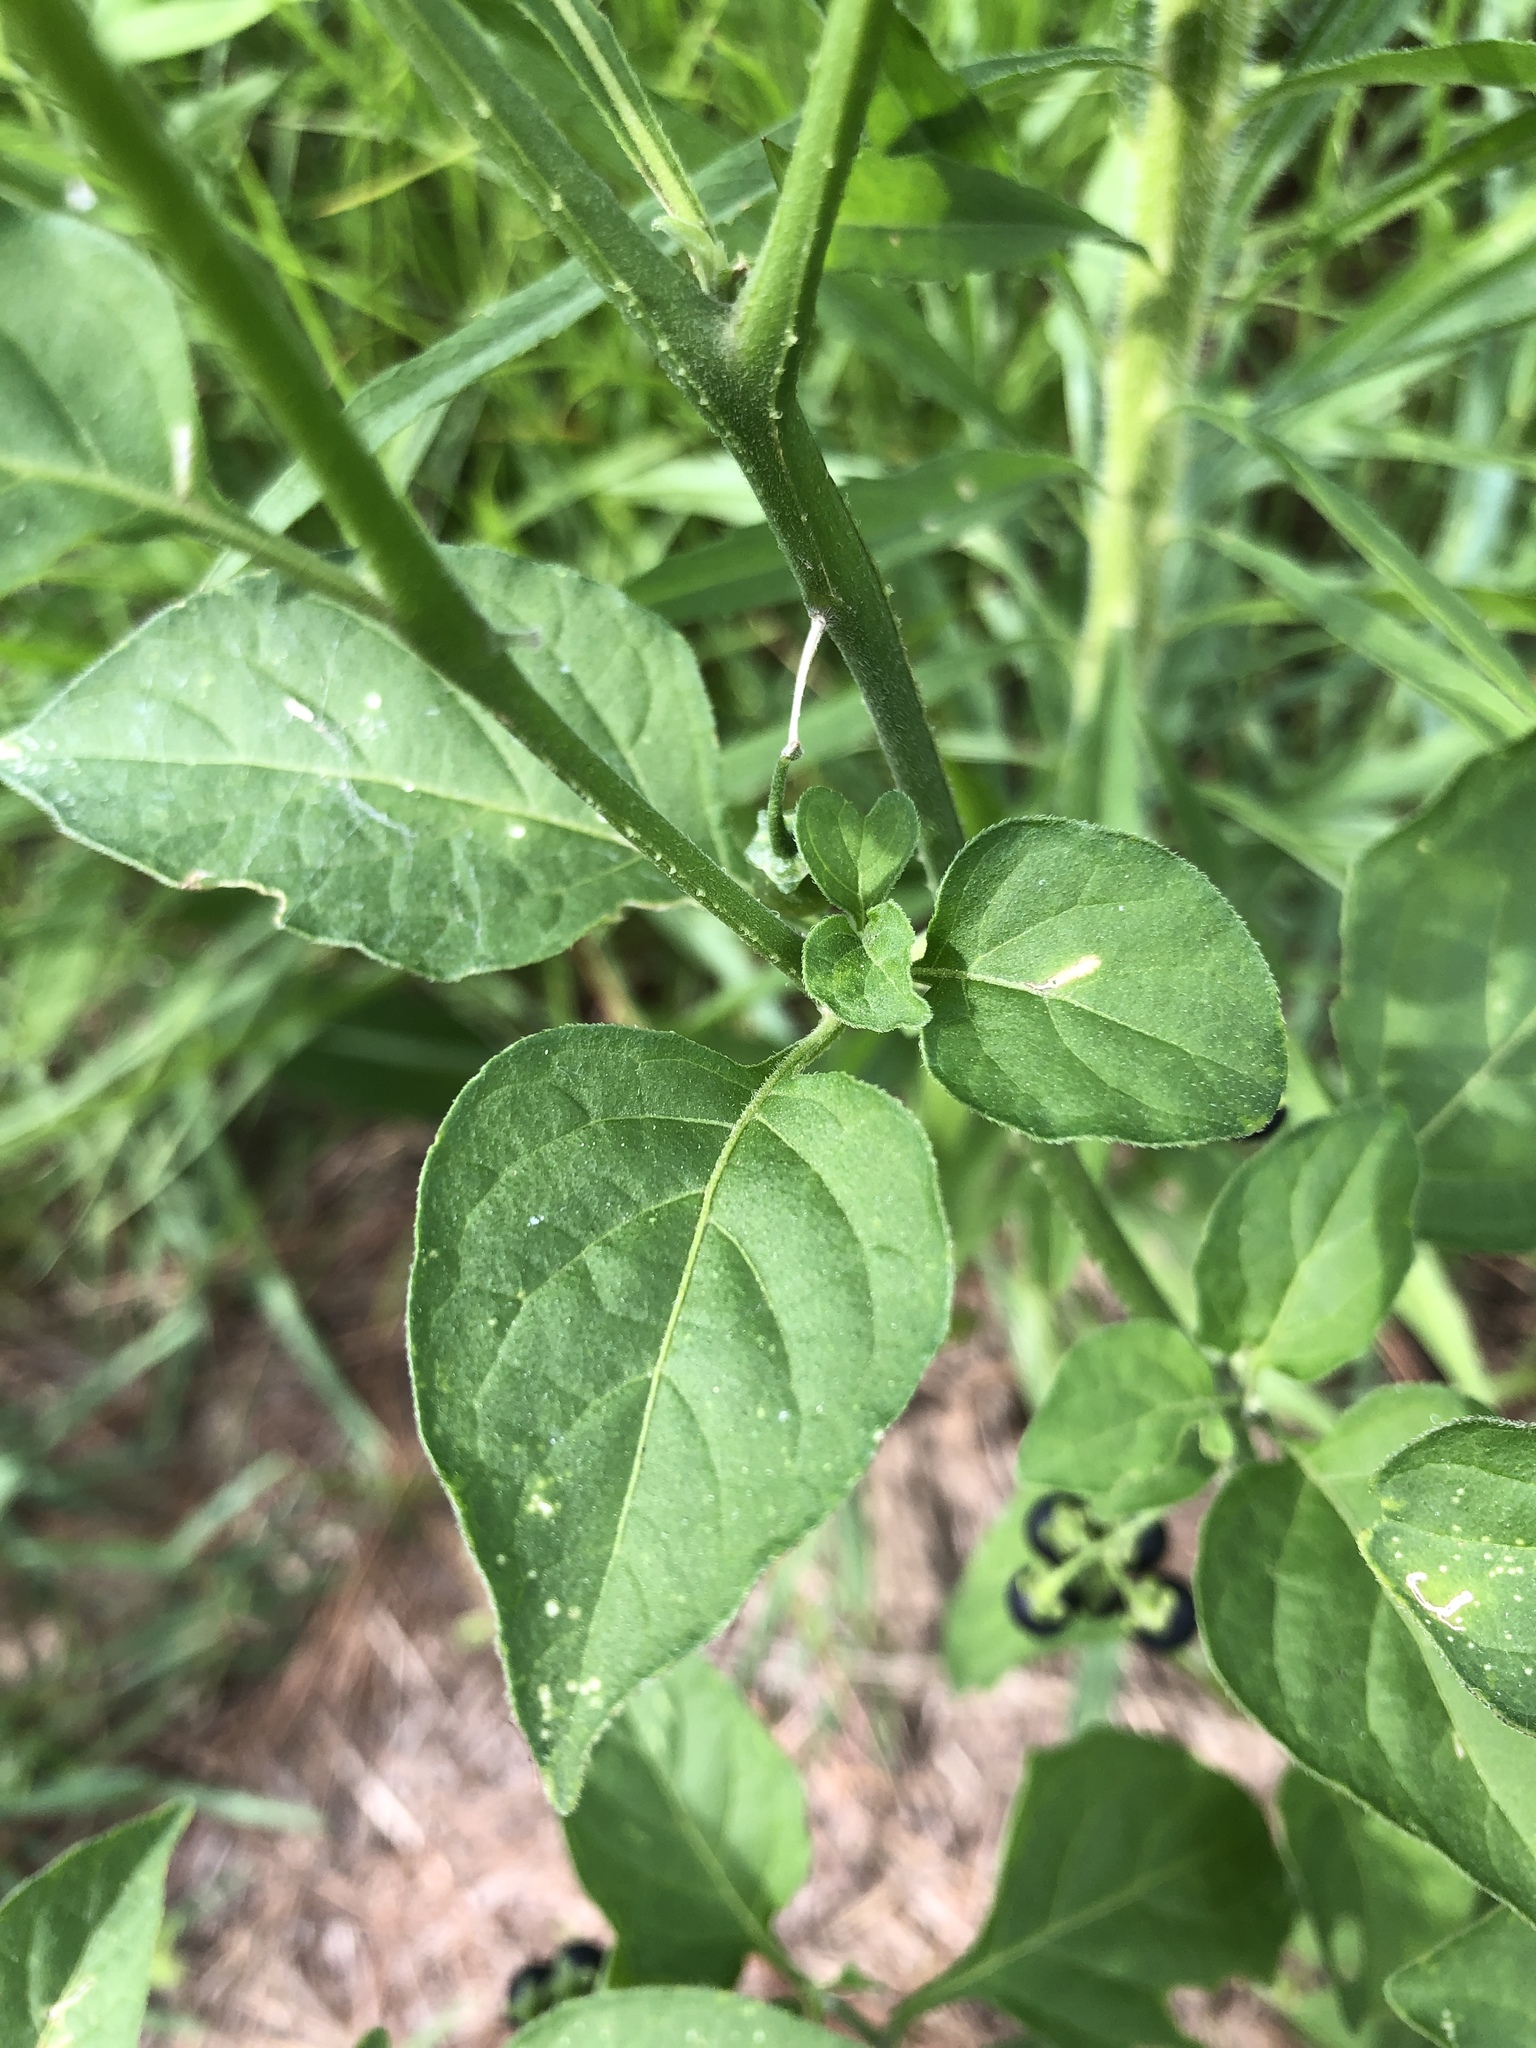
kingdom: Plantae
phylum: Tracheophyta
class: Magnoliopsida
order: Solanales
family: Solanaceae
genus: Solanum
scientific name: Solanum emulans
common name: Eastern black nightshade
